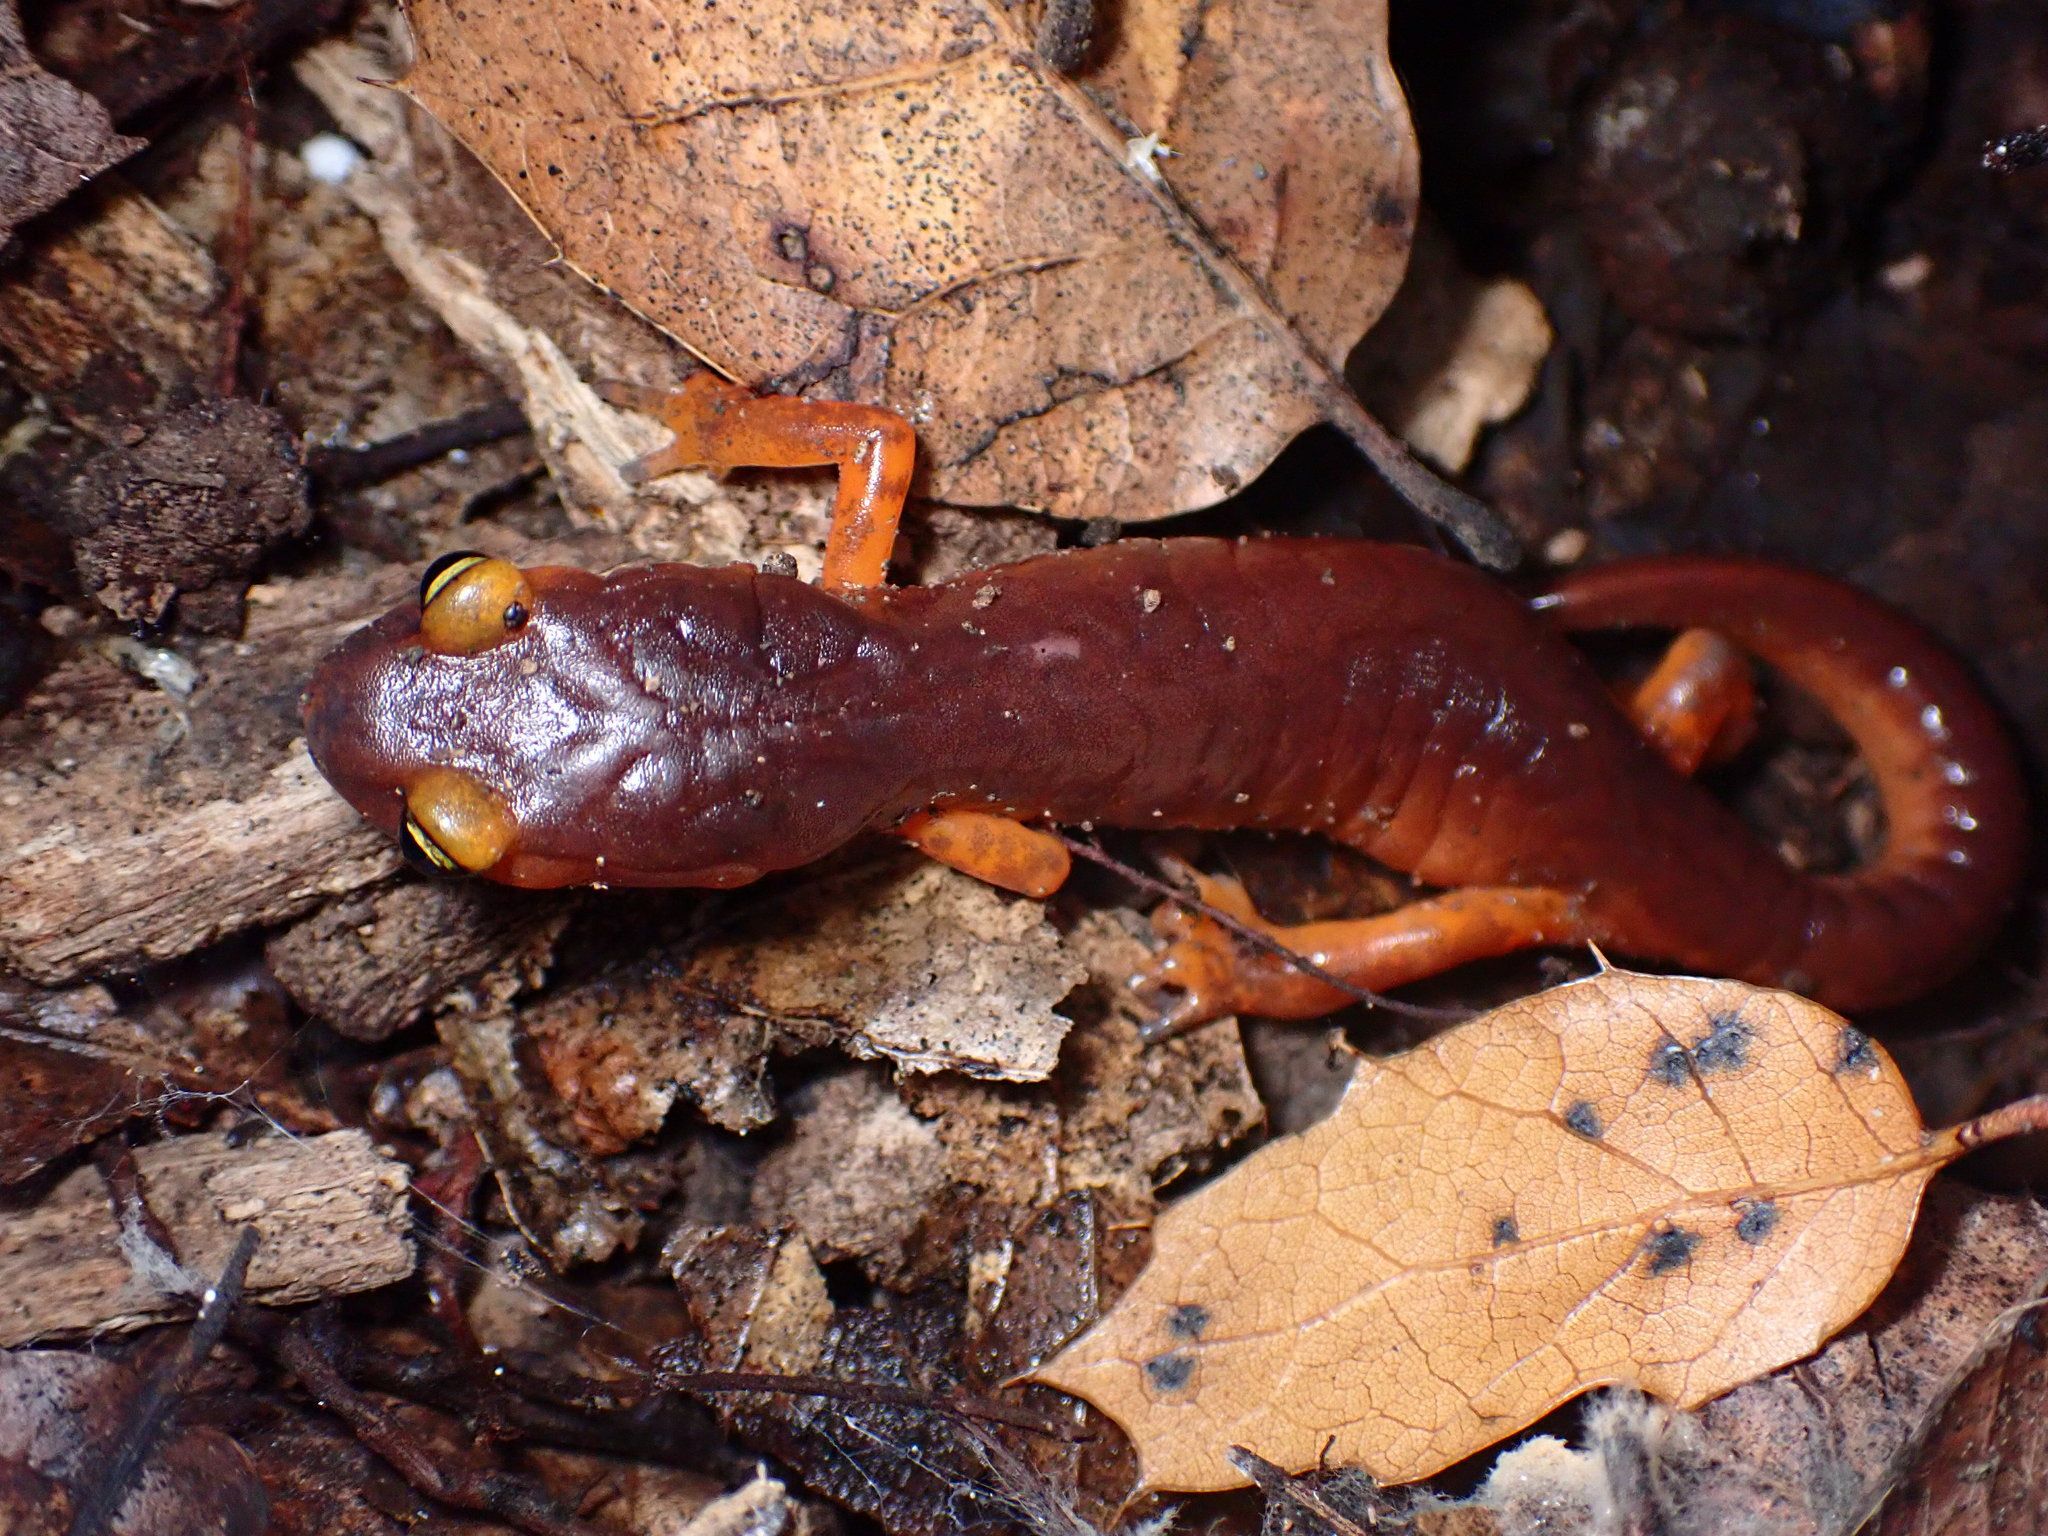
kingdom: Animalia
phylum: Chordata
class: Amphibia
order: Caudata
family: Plethodontidae
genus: Ensatina
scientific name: Ensatina eschscholtzii
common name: Ensatina
